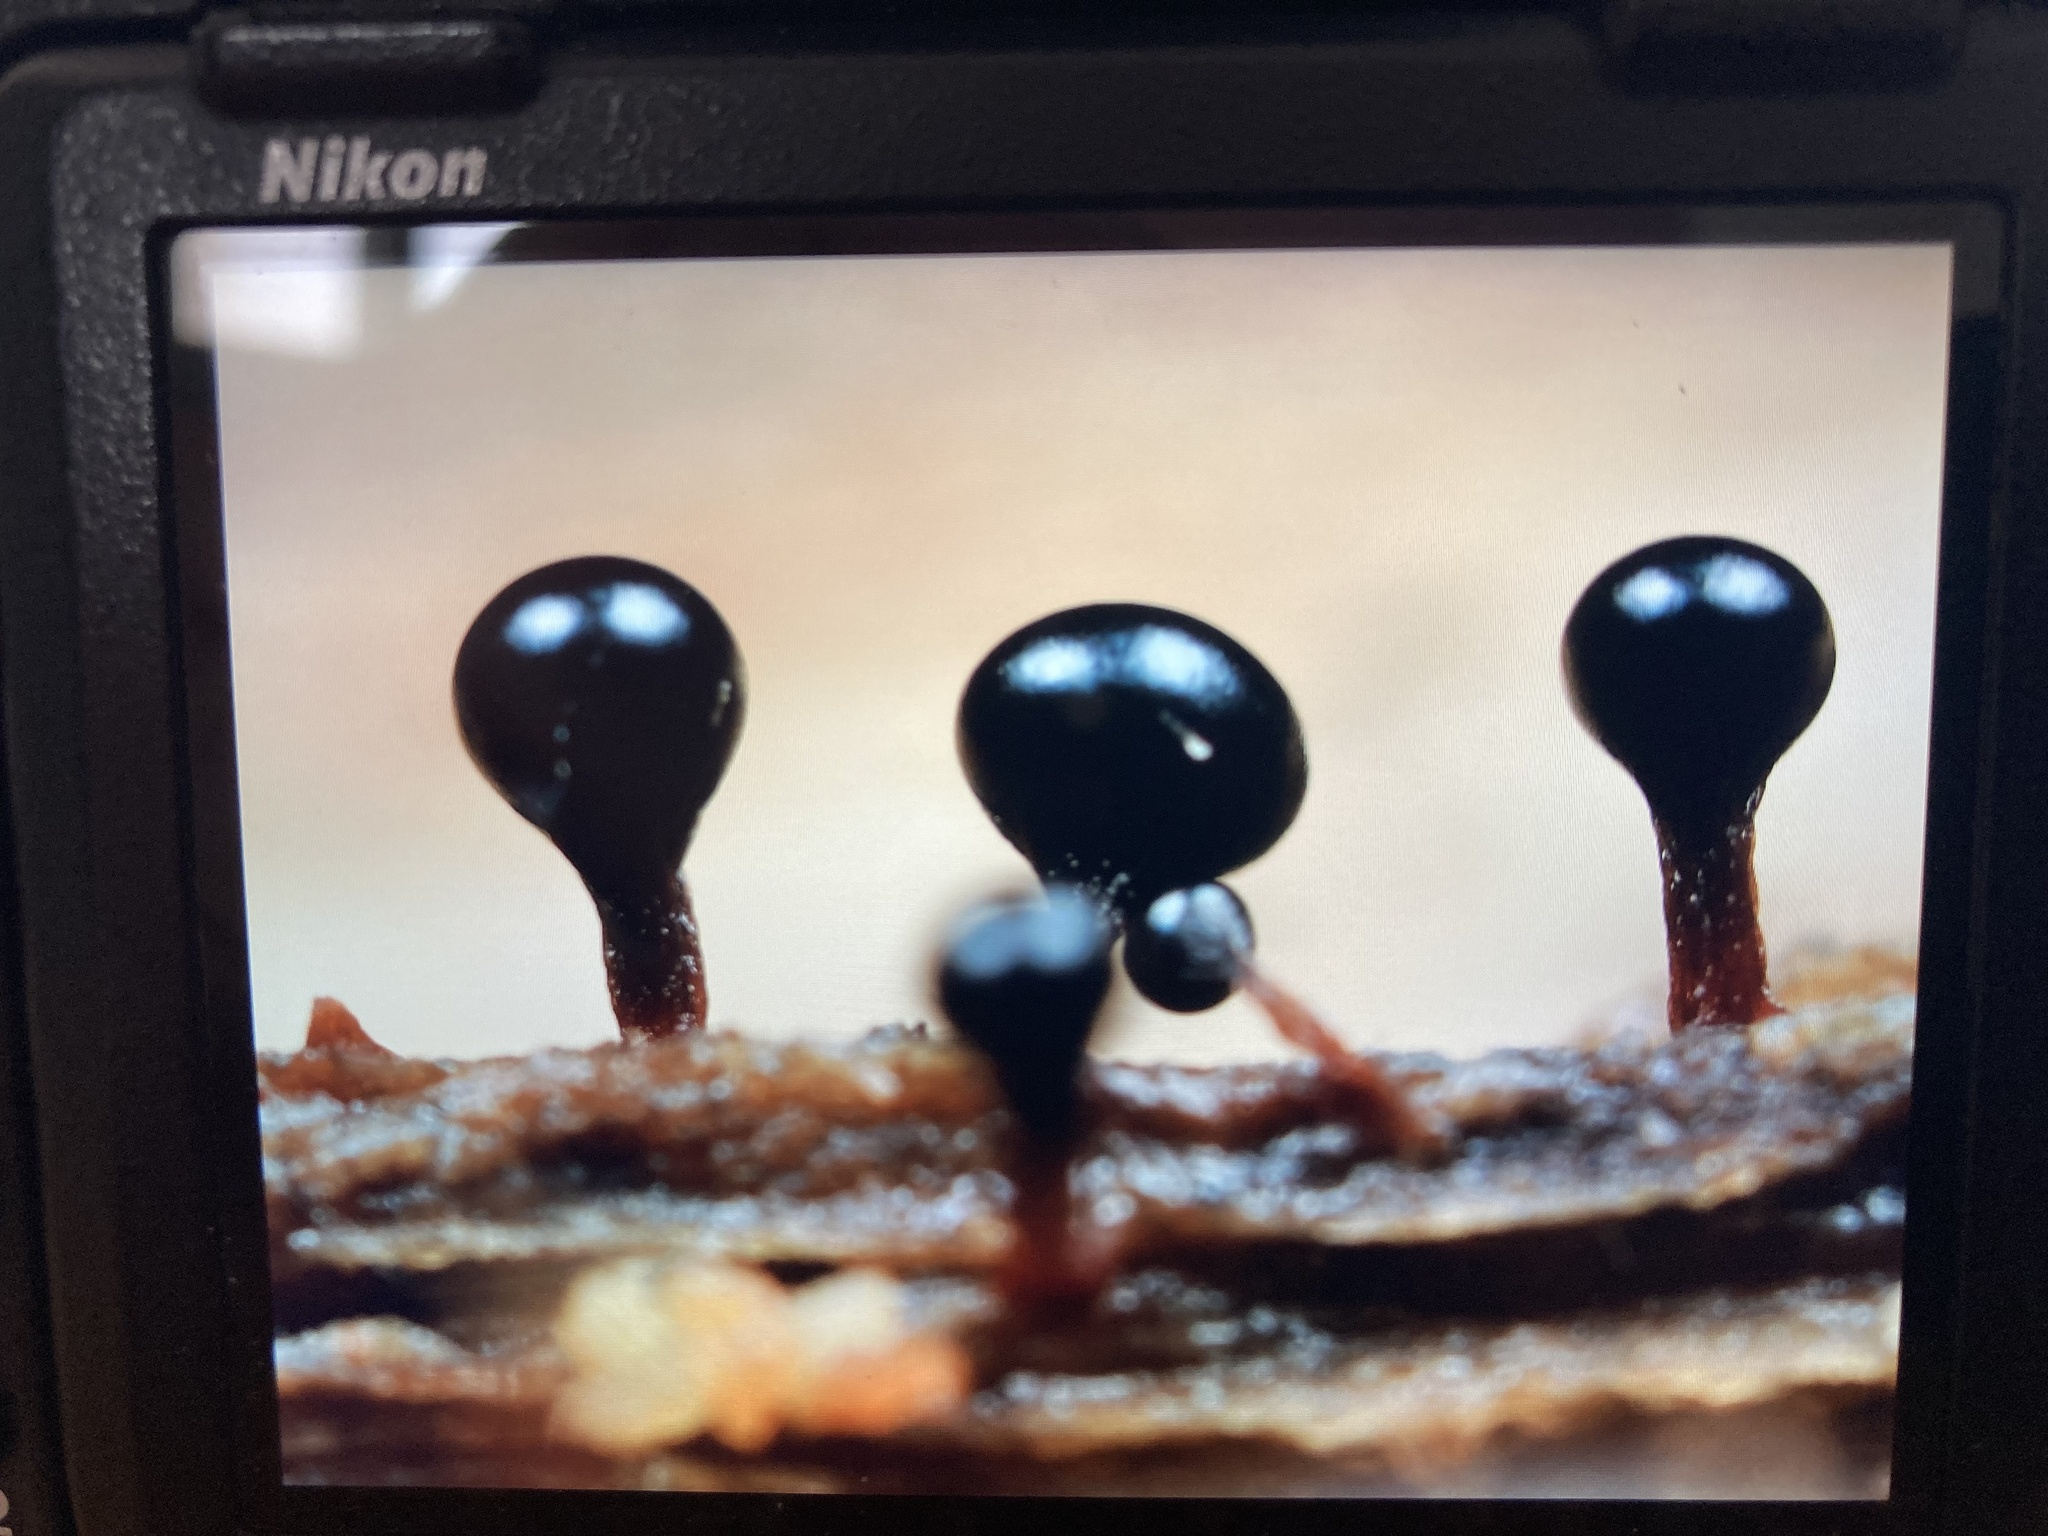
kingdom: Protozoa
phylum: Mycetozoa
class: Myxomycetes
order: Trichiales
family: Trichiaceae
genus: Metatrichia
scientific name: Metatrichia floriformis
